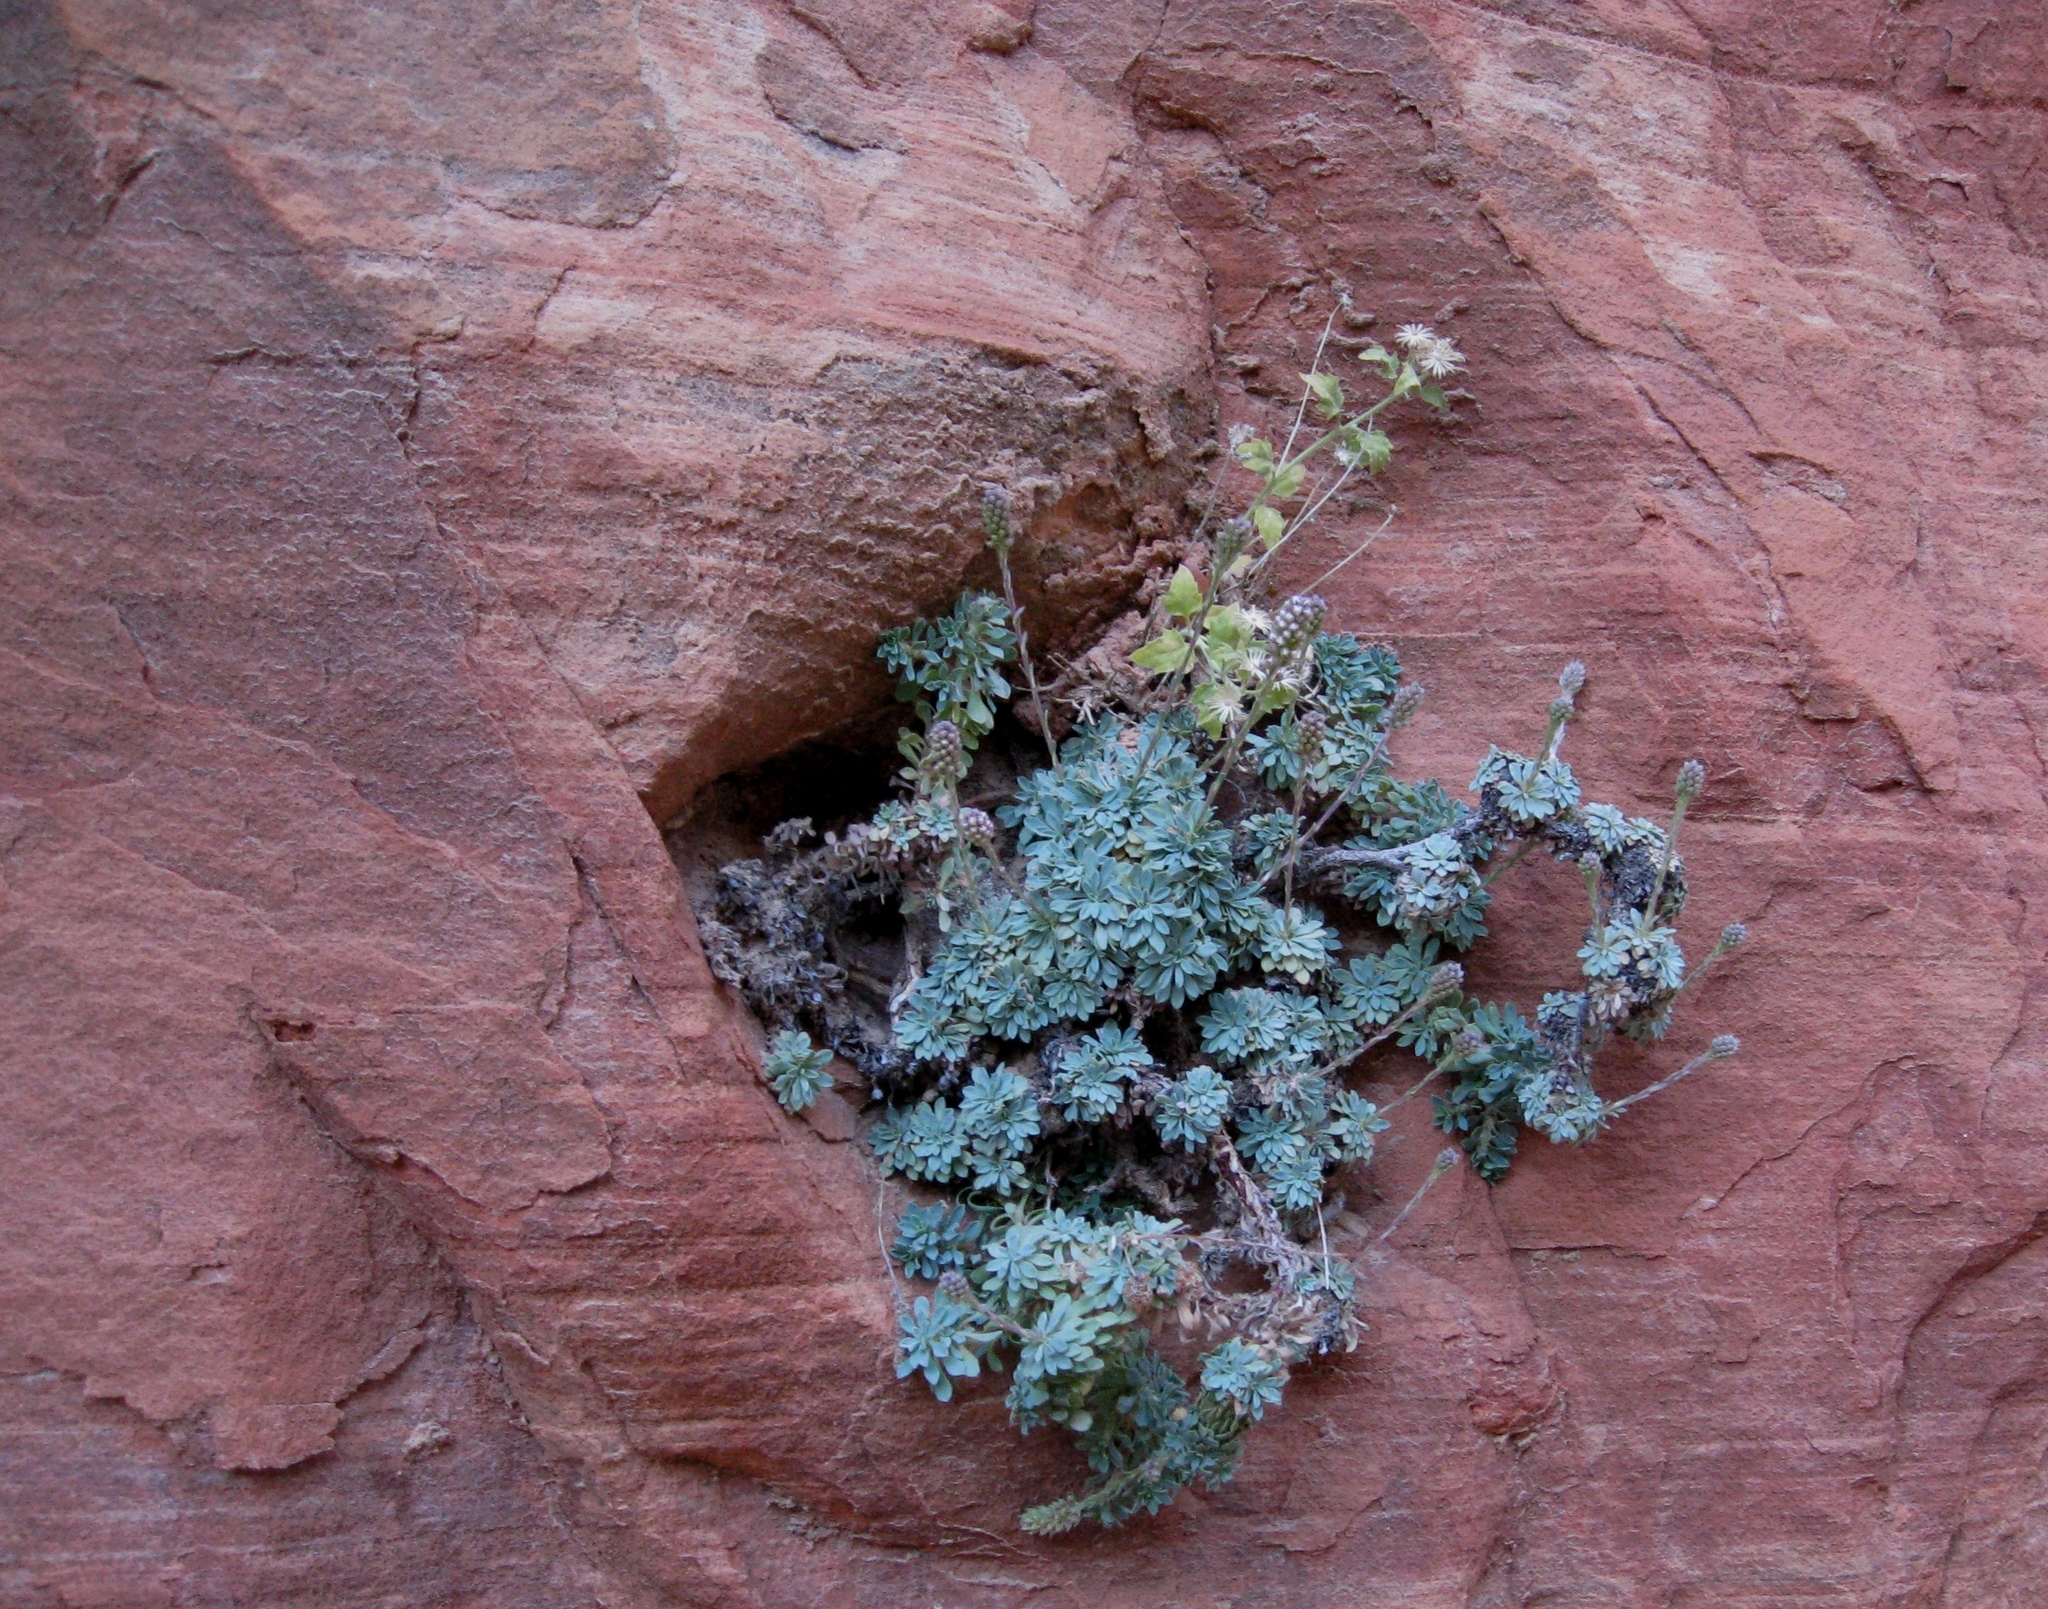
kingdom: Plantae
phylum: Tracheophyta
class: Magnoliopsida
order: Rosales
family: Rosaceae
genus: Petrophytum
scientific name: Petrophytum caespitosum
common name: Mat rockspirea
